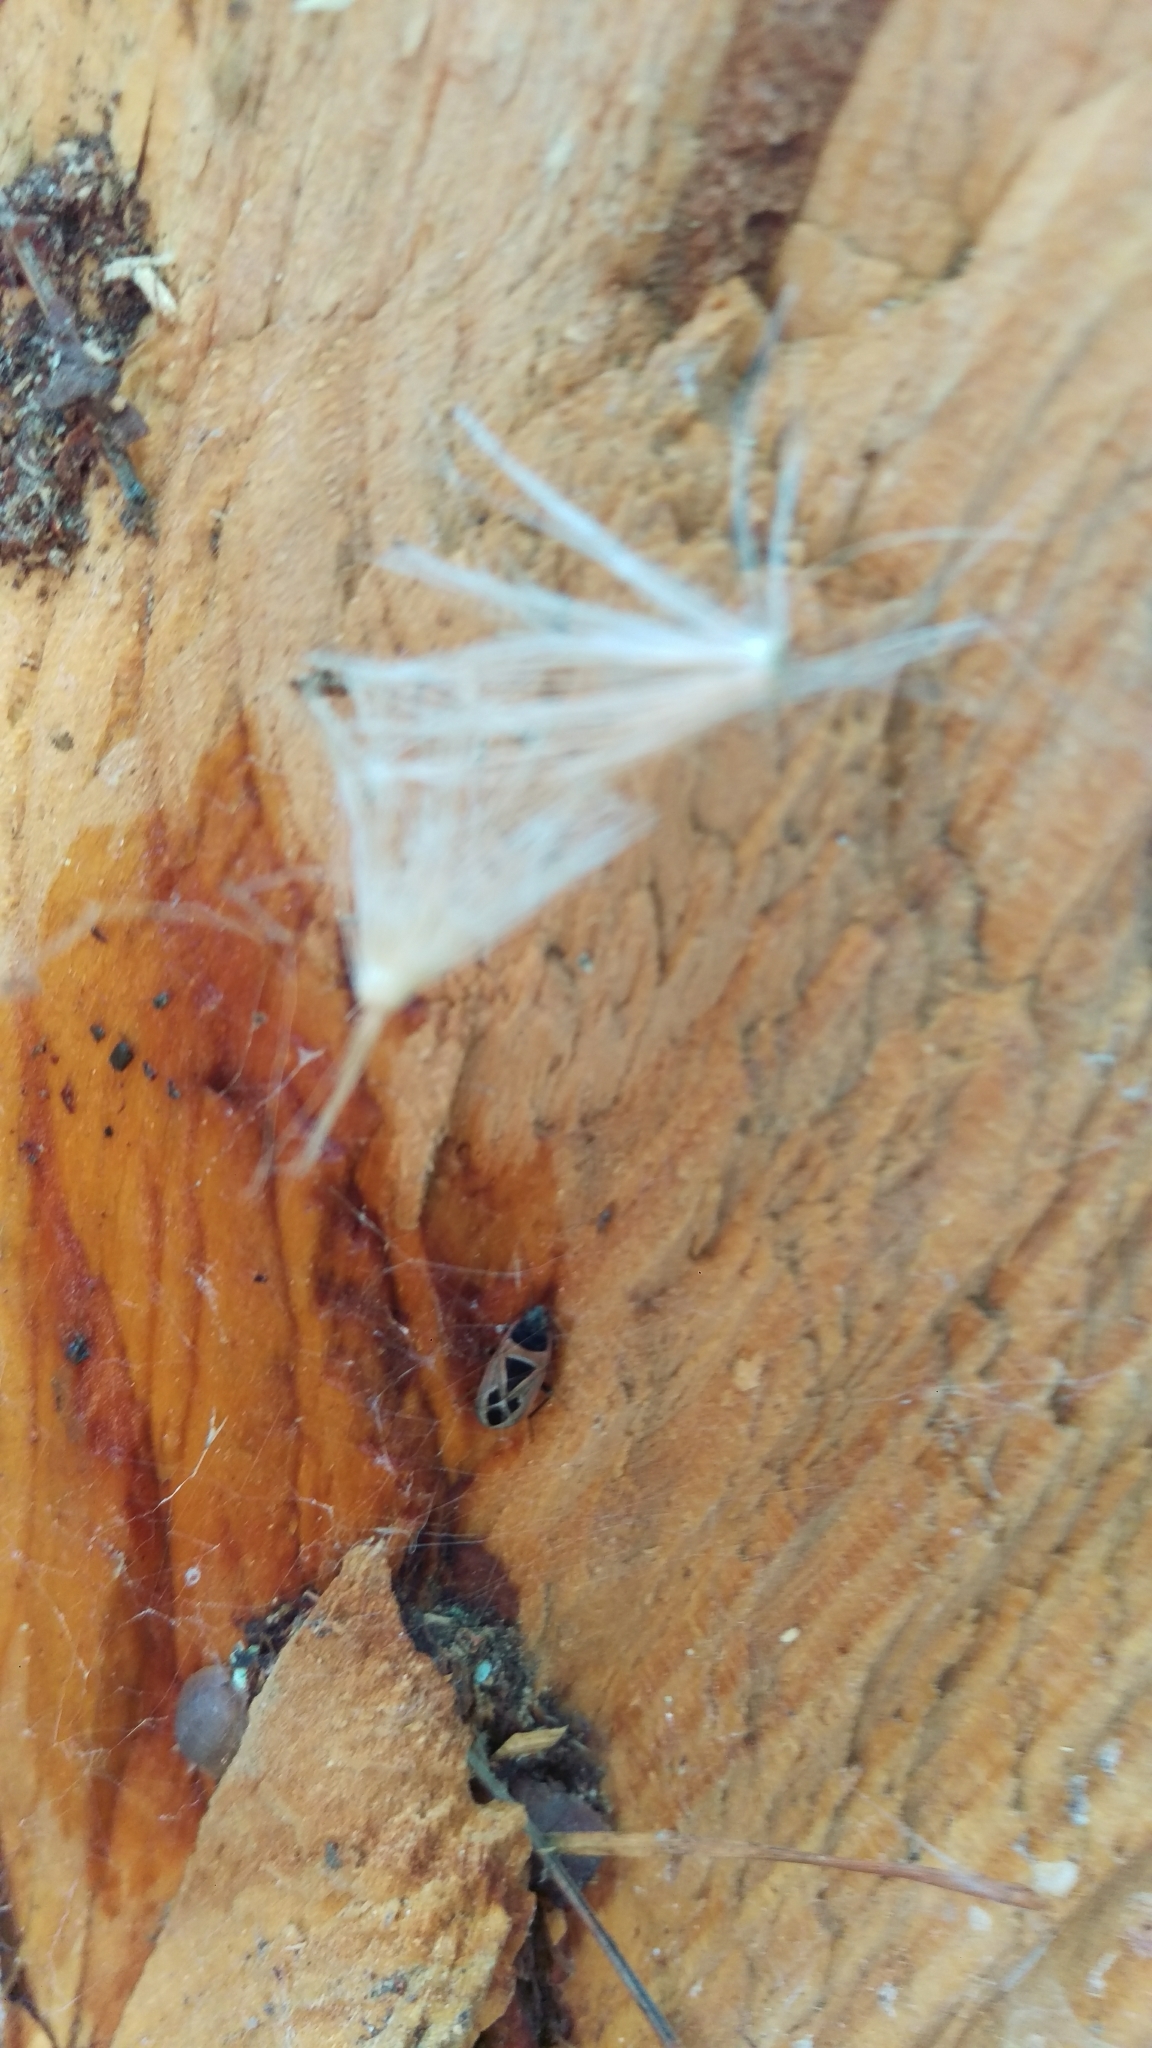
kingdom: Animalia
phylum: Arthropoda
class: Insecta
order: Hemiptera
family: Rhyparochromidae
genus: Xanthochilus
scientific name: Xanthochilus saturnius
